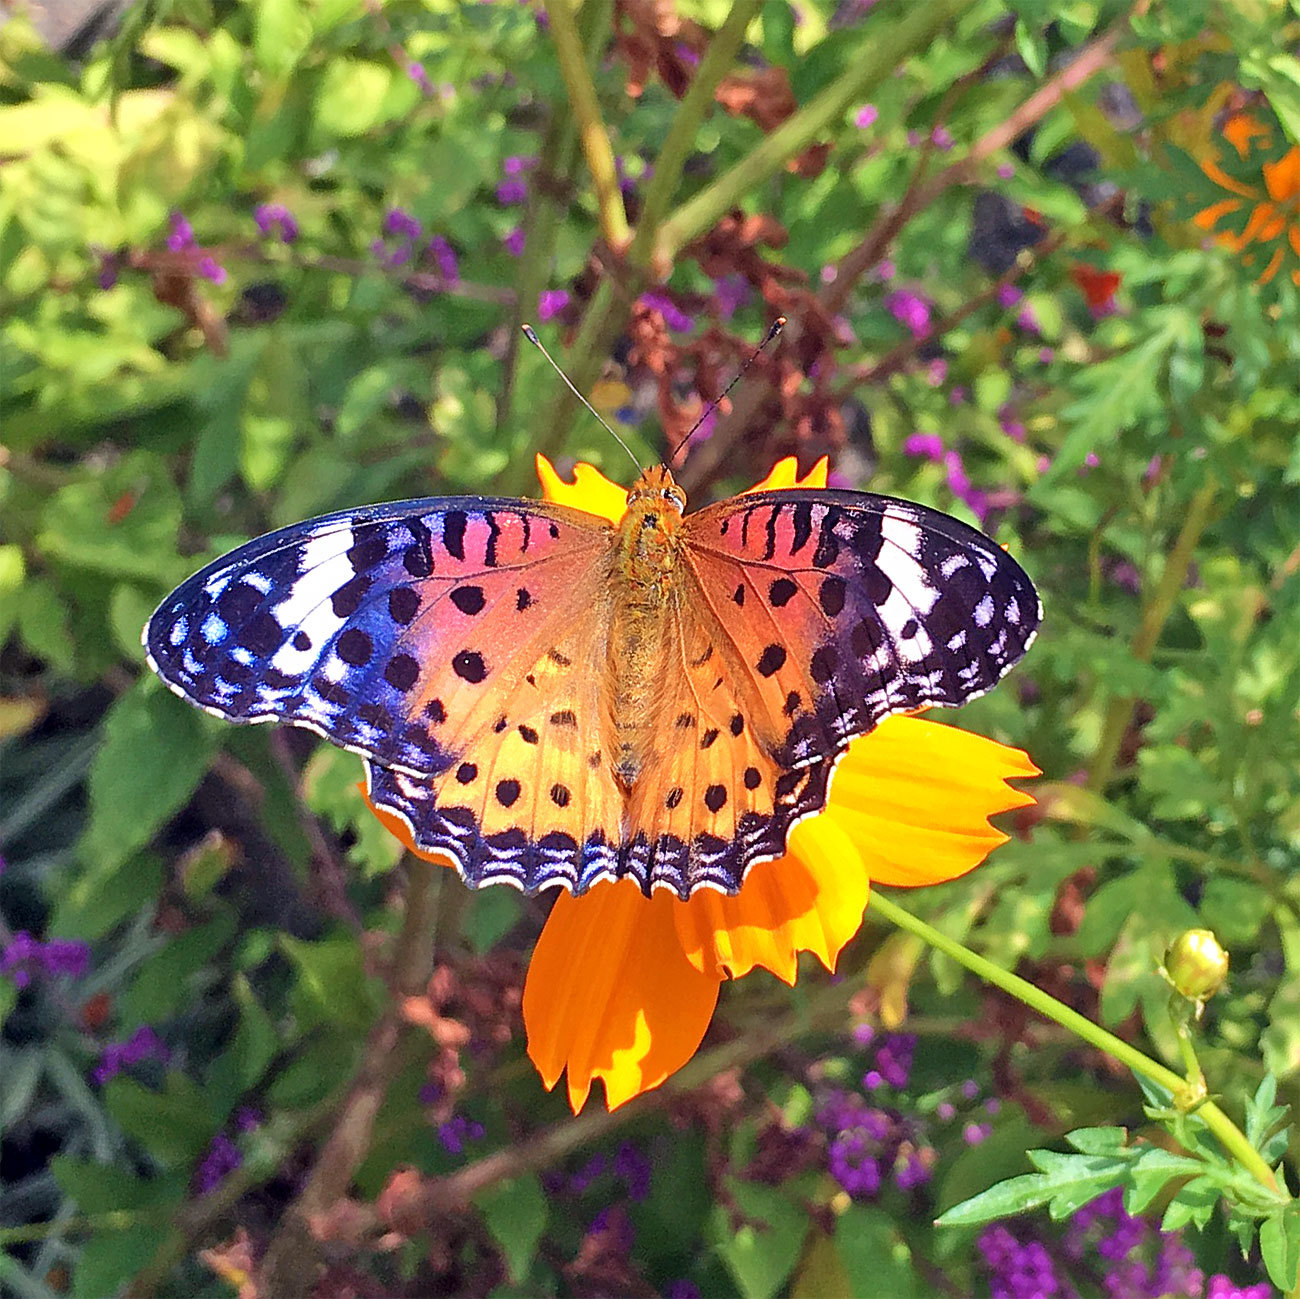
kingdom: Animalia
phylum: Arthropoda
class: Insecta
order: Lepidoptera
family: Nymphalidae
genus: Argynnis
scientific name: Argynnis hyperbius
